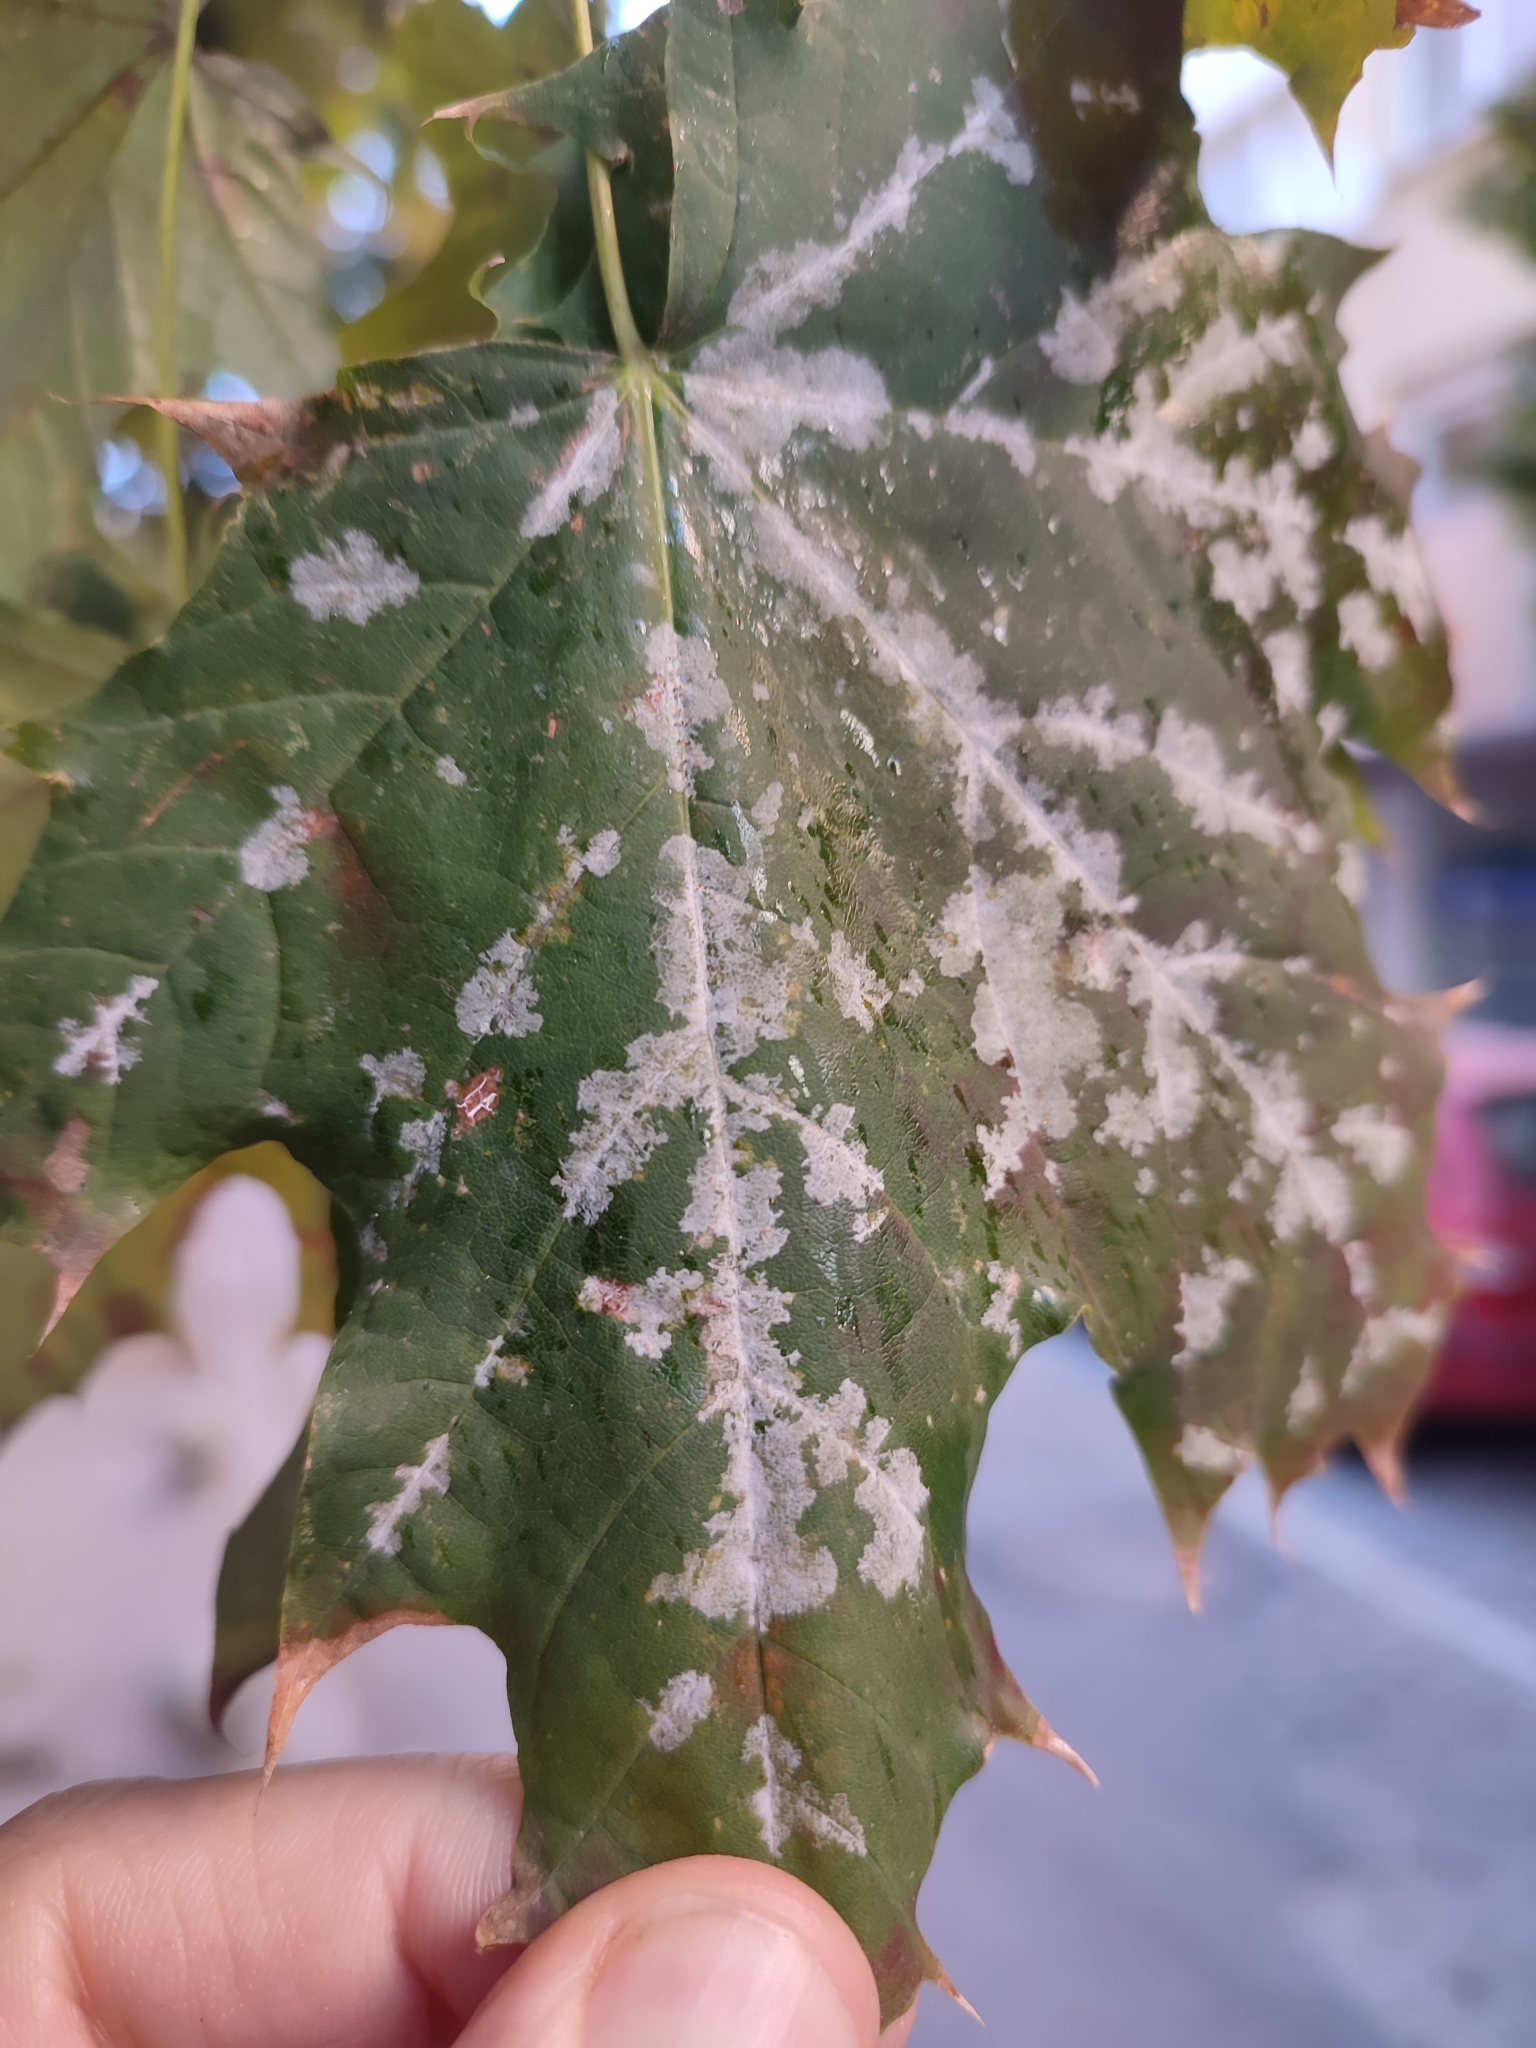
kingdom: Fungi
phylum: Ascomycota
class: Leotiomycetes
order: Helotiales
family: Erysiphaceae
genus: Sawadaea
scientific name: Sawadaea tulasnei
